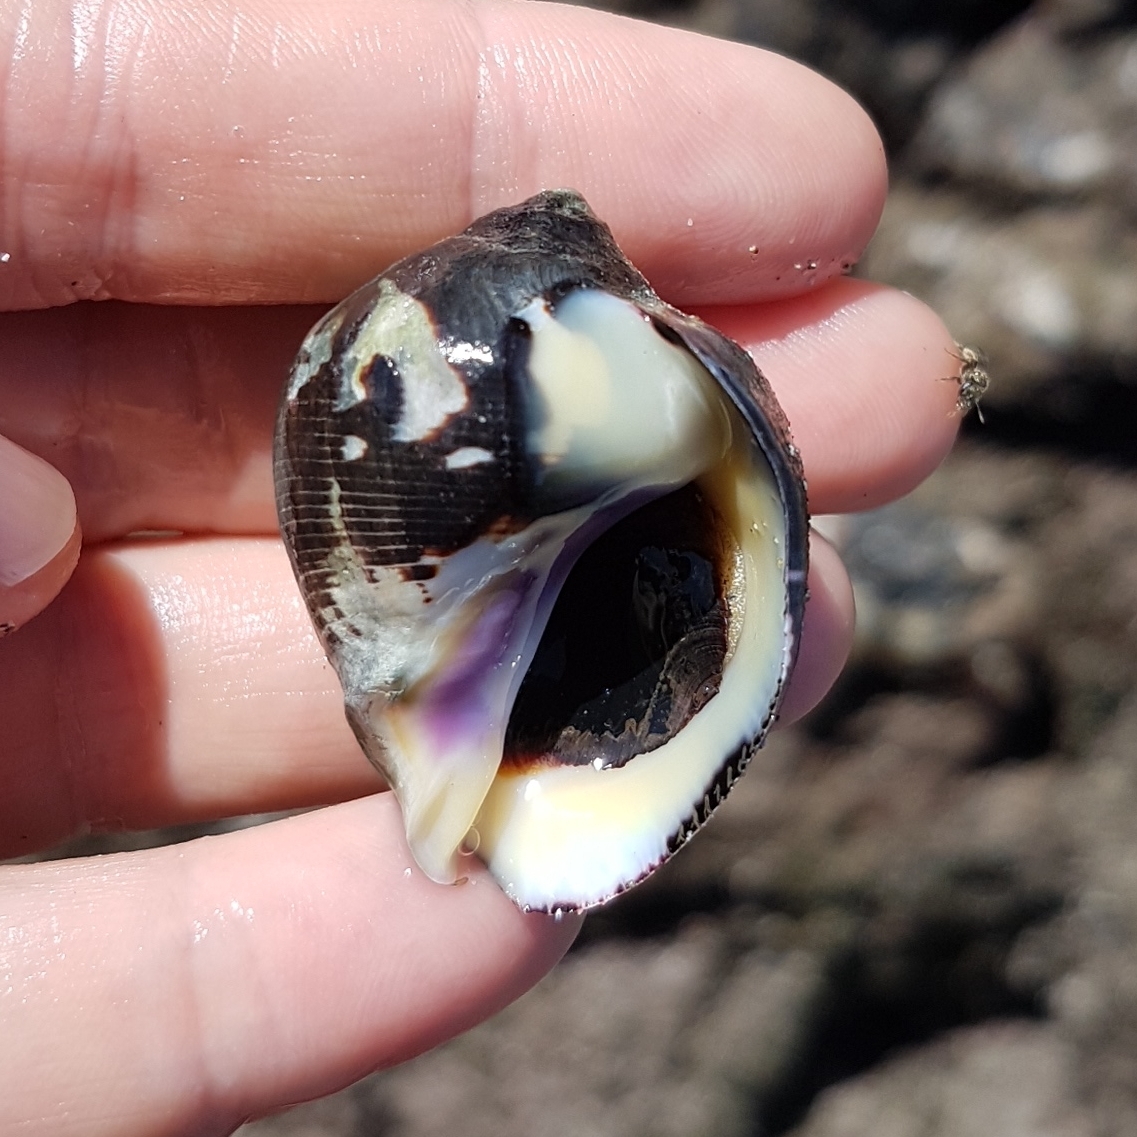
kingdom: Animalia
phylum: Mollusca
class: Gastropoda
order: Neogastropoda
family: Muricidae
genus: Vasula
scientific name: Vasula melones
